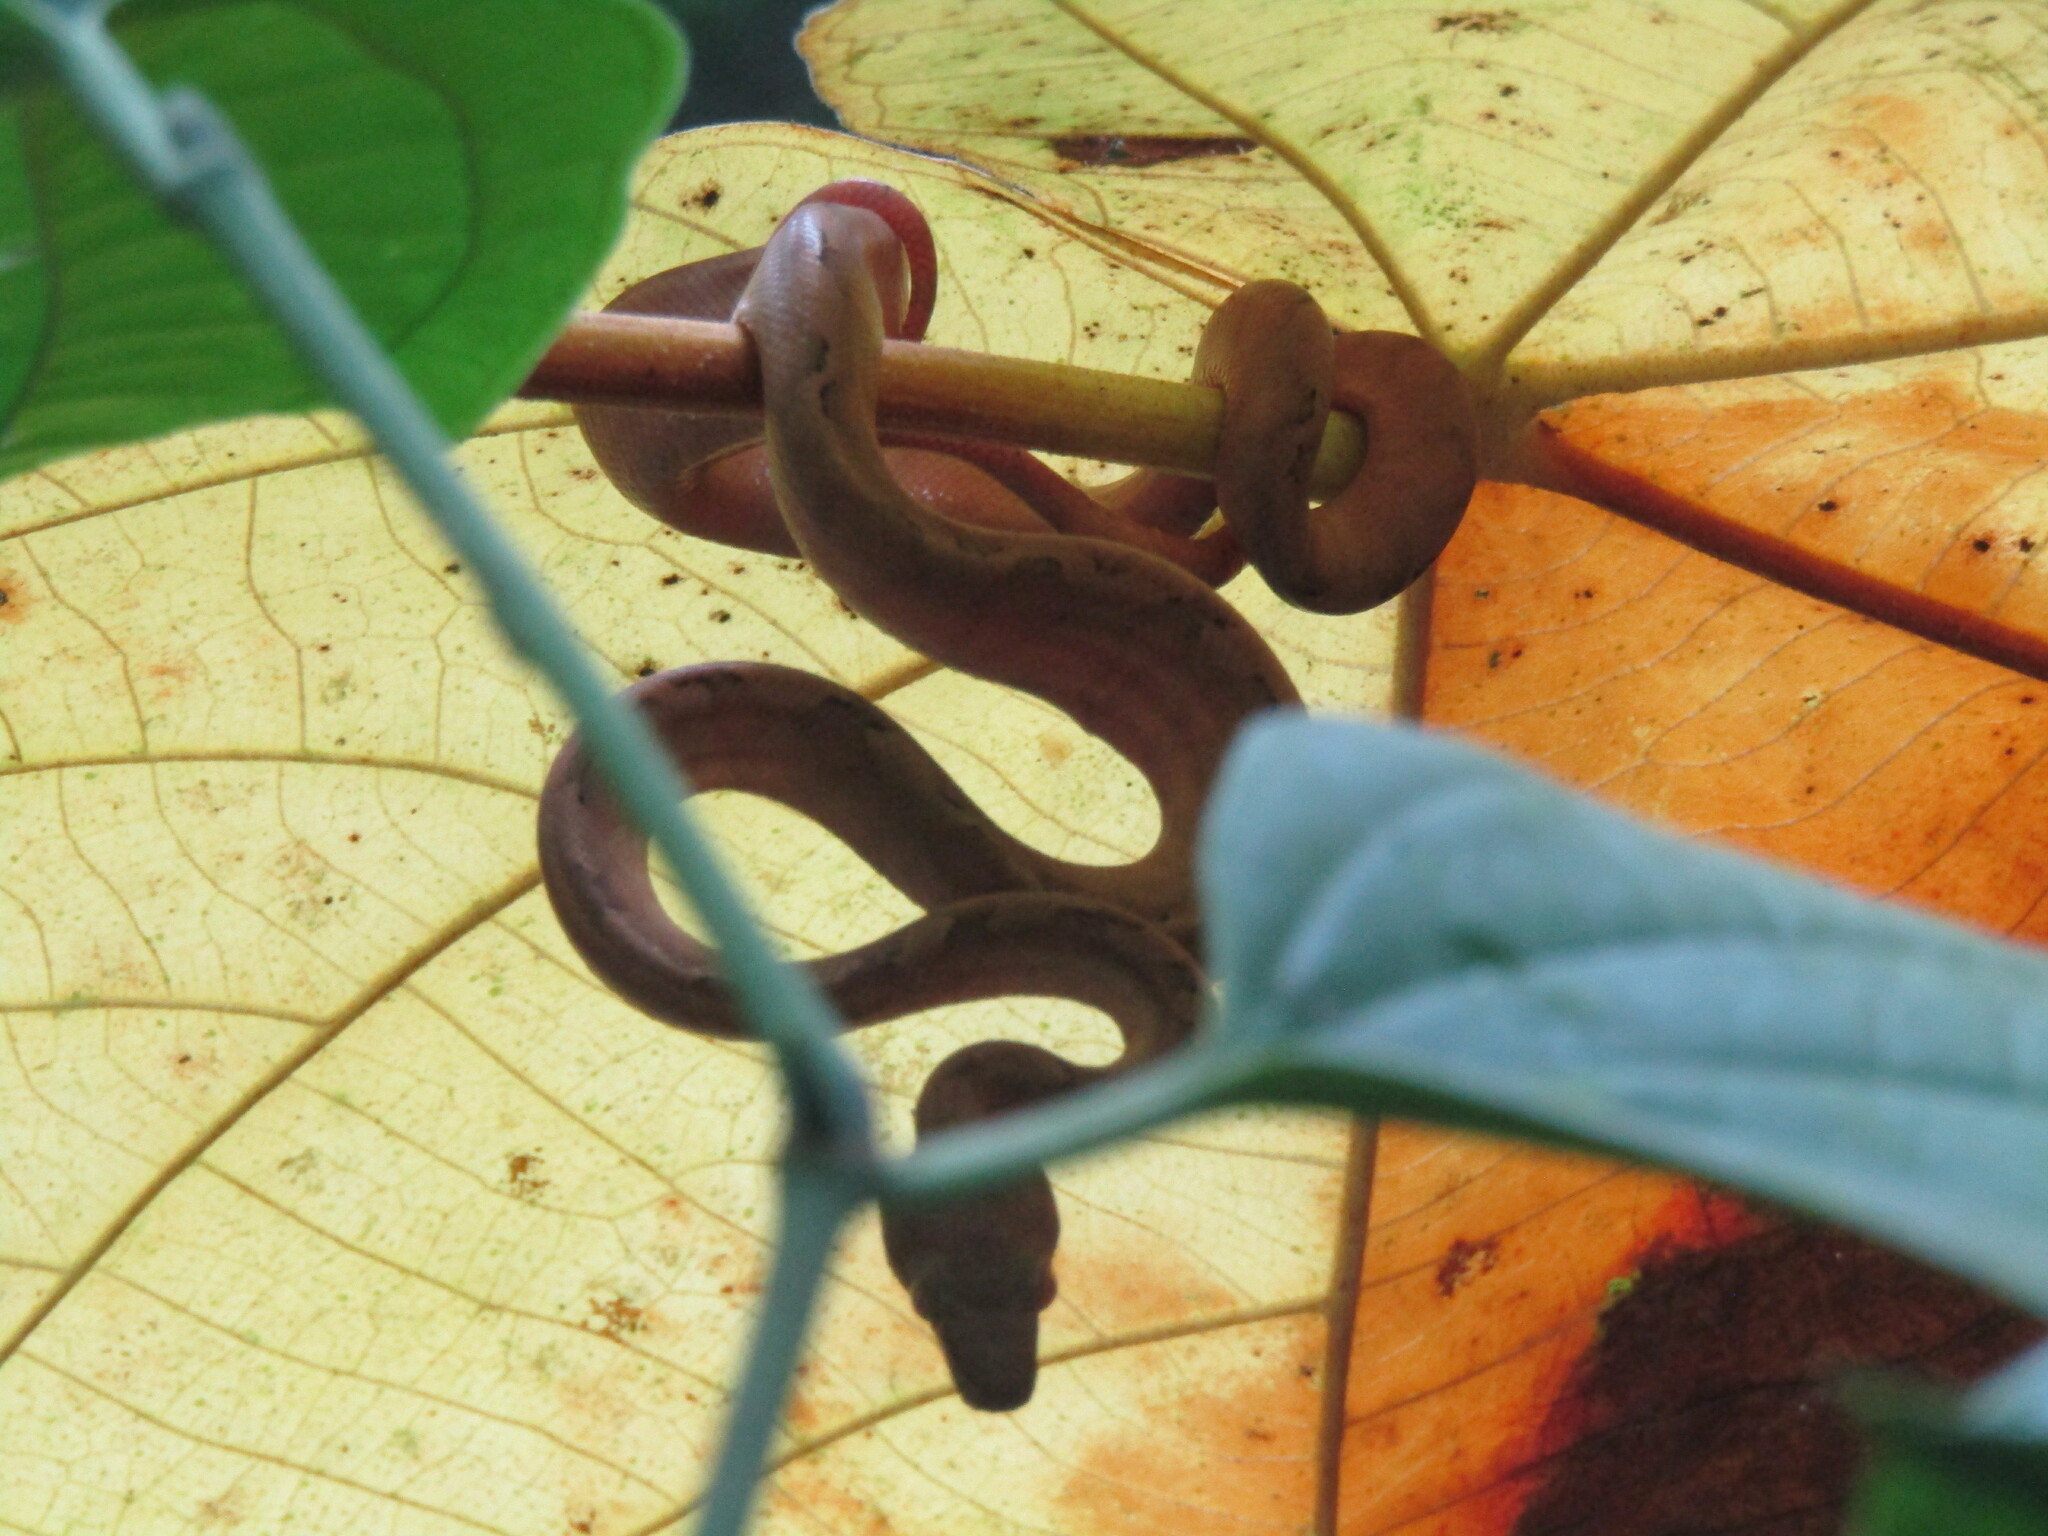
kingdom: Animalia
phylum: Chordata
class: Squamata
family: Boidae
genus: Corallus
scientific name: Corallus annulatus
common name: Ringed tree boa
